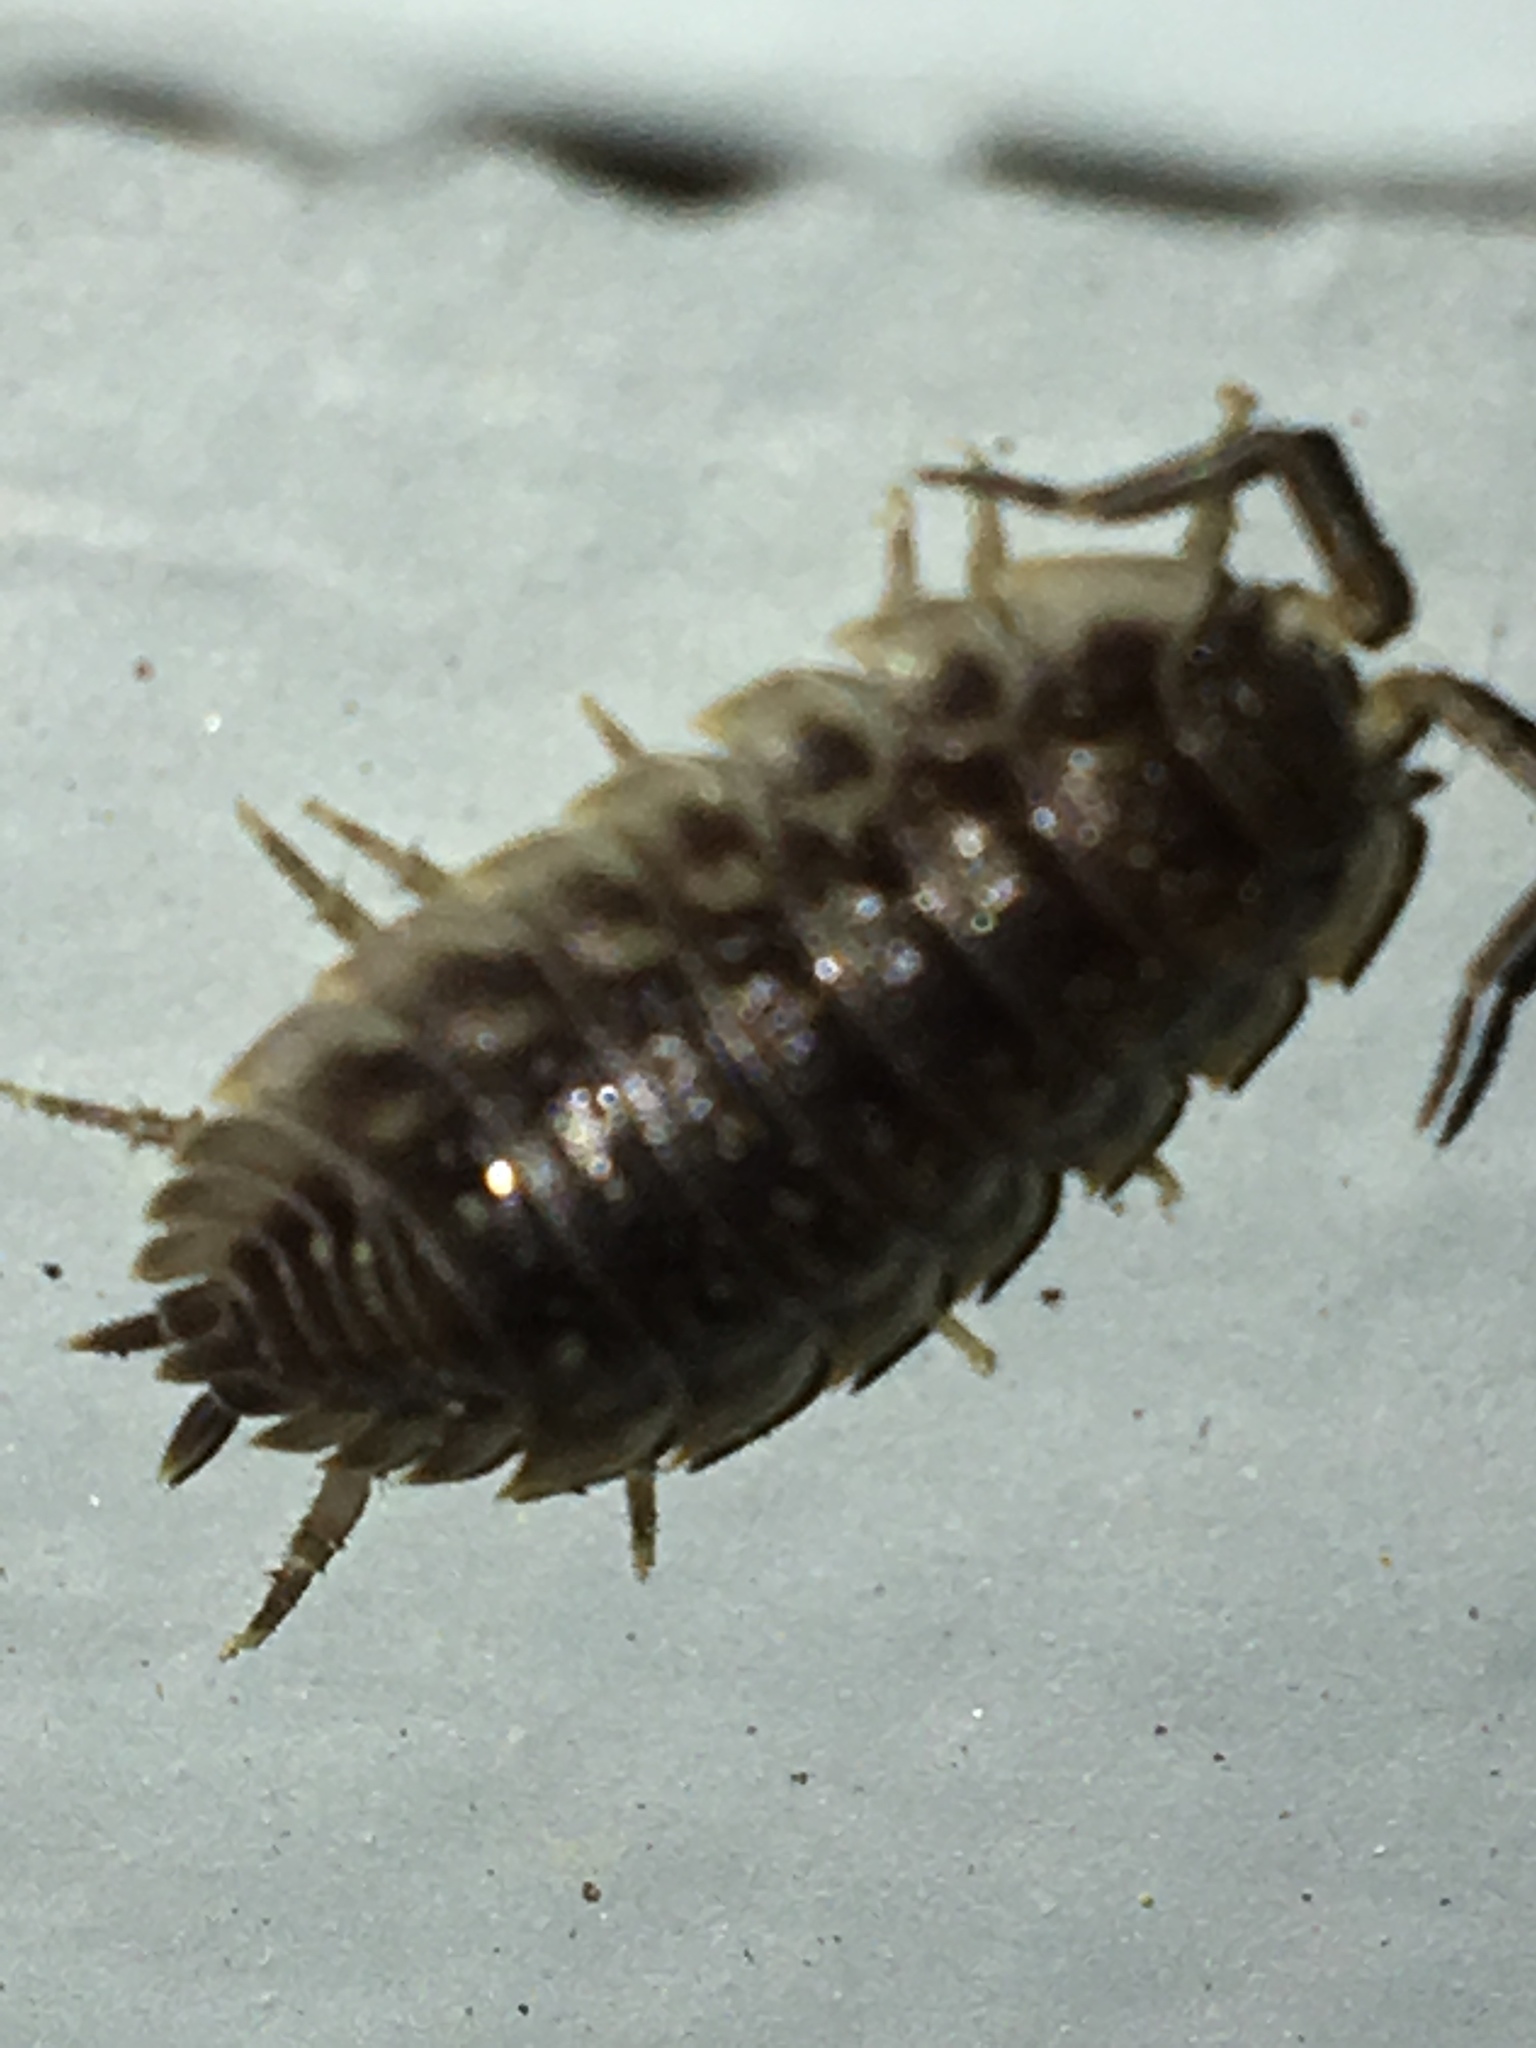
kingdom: Animalia
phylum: Arthropoda
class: Malacostraca
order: Isopoda
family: Oniscidae
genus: Oniscus
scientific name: Oniscus asellus
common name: Common shiny woodlouse
